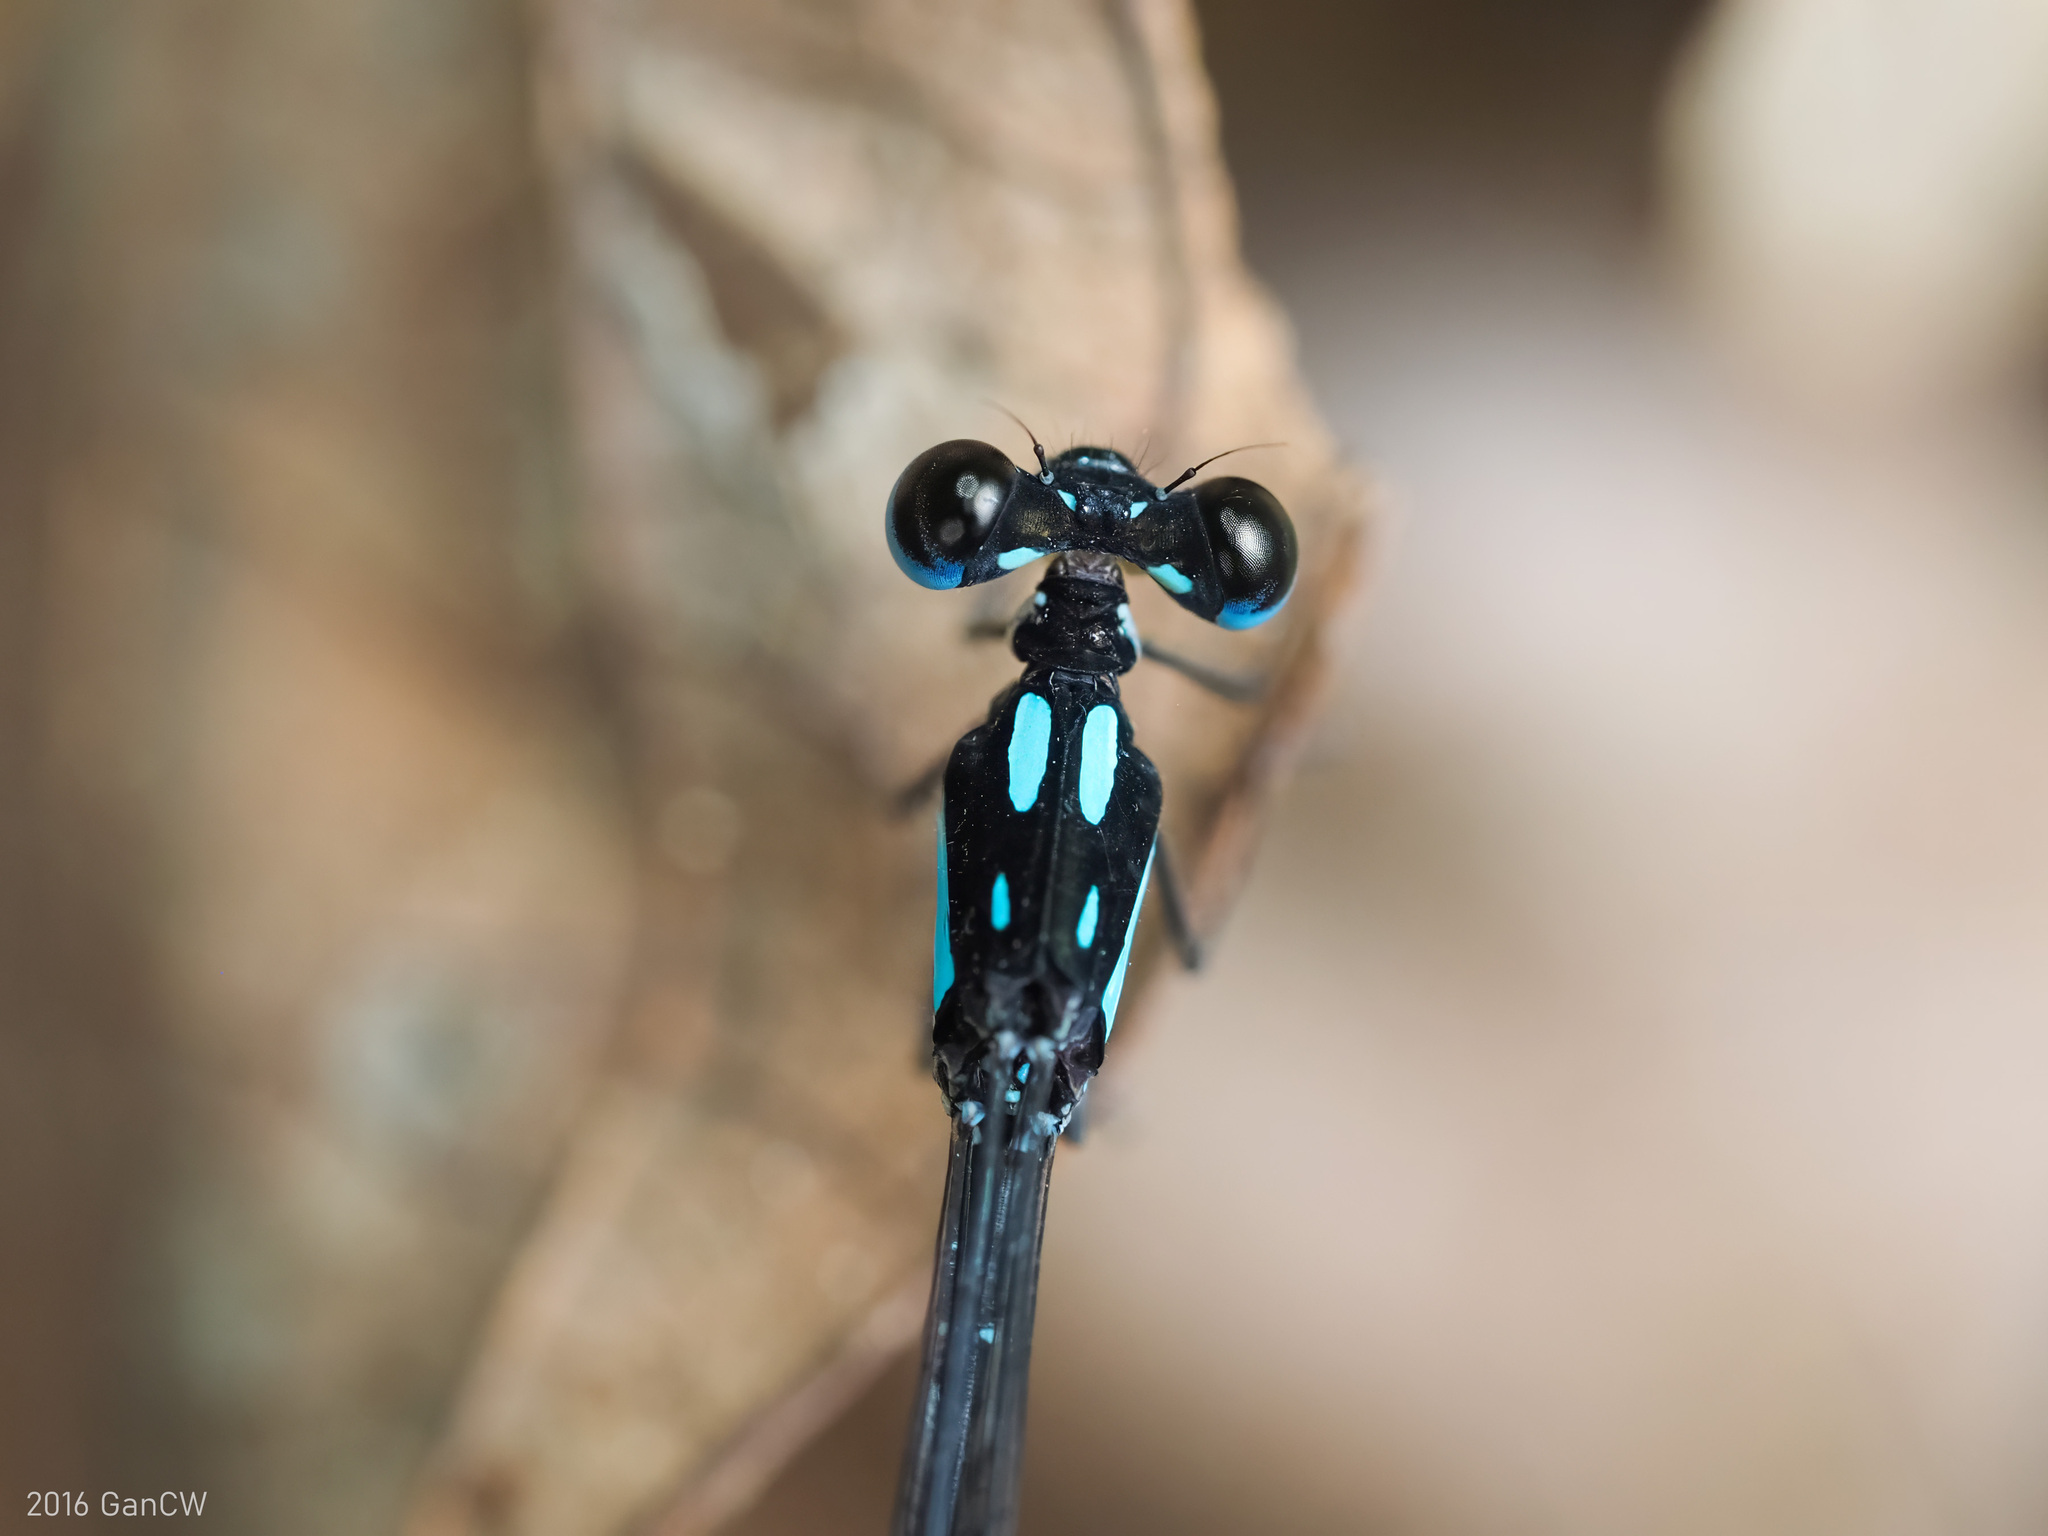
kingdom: Animalia
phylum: Arthropoda
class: Insecta
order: Odonata
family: Platycnemididae
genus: Coeliccia
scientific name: Coeliccia didyma
